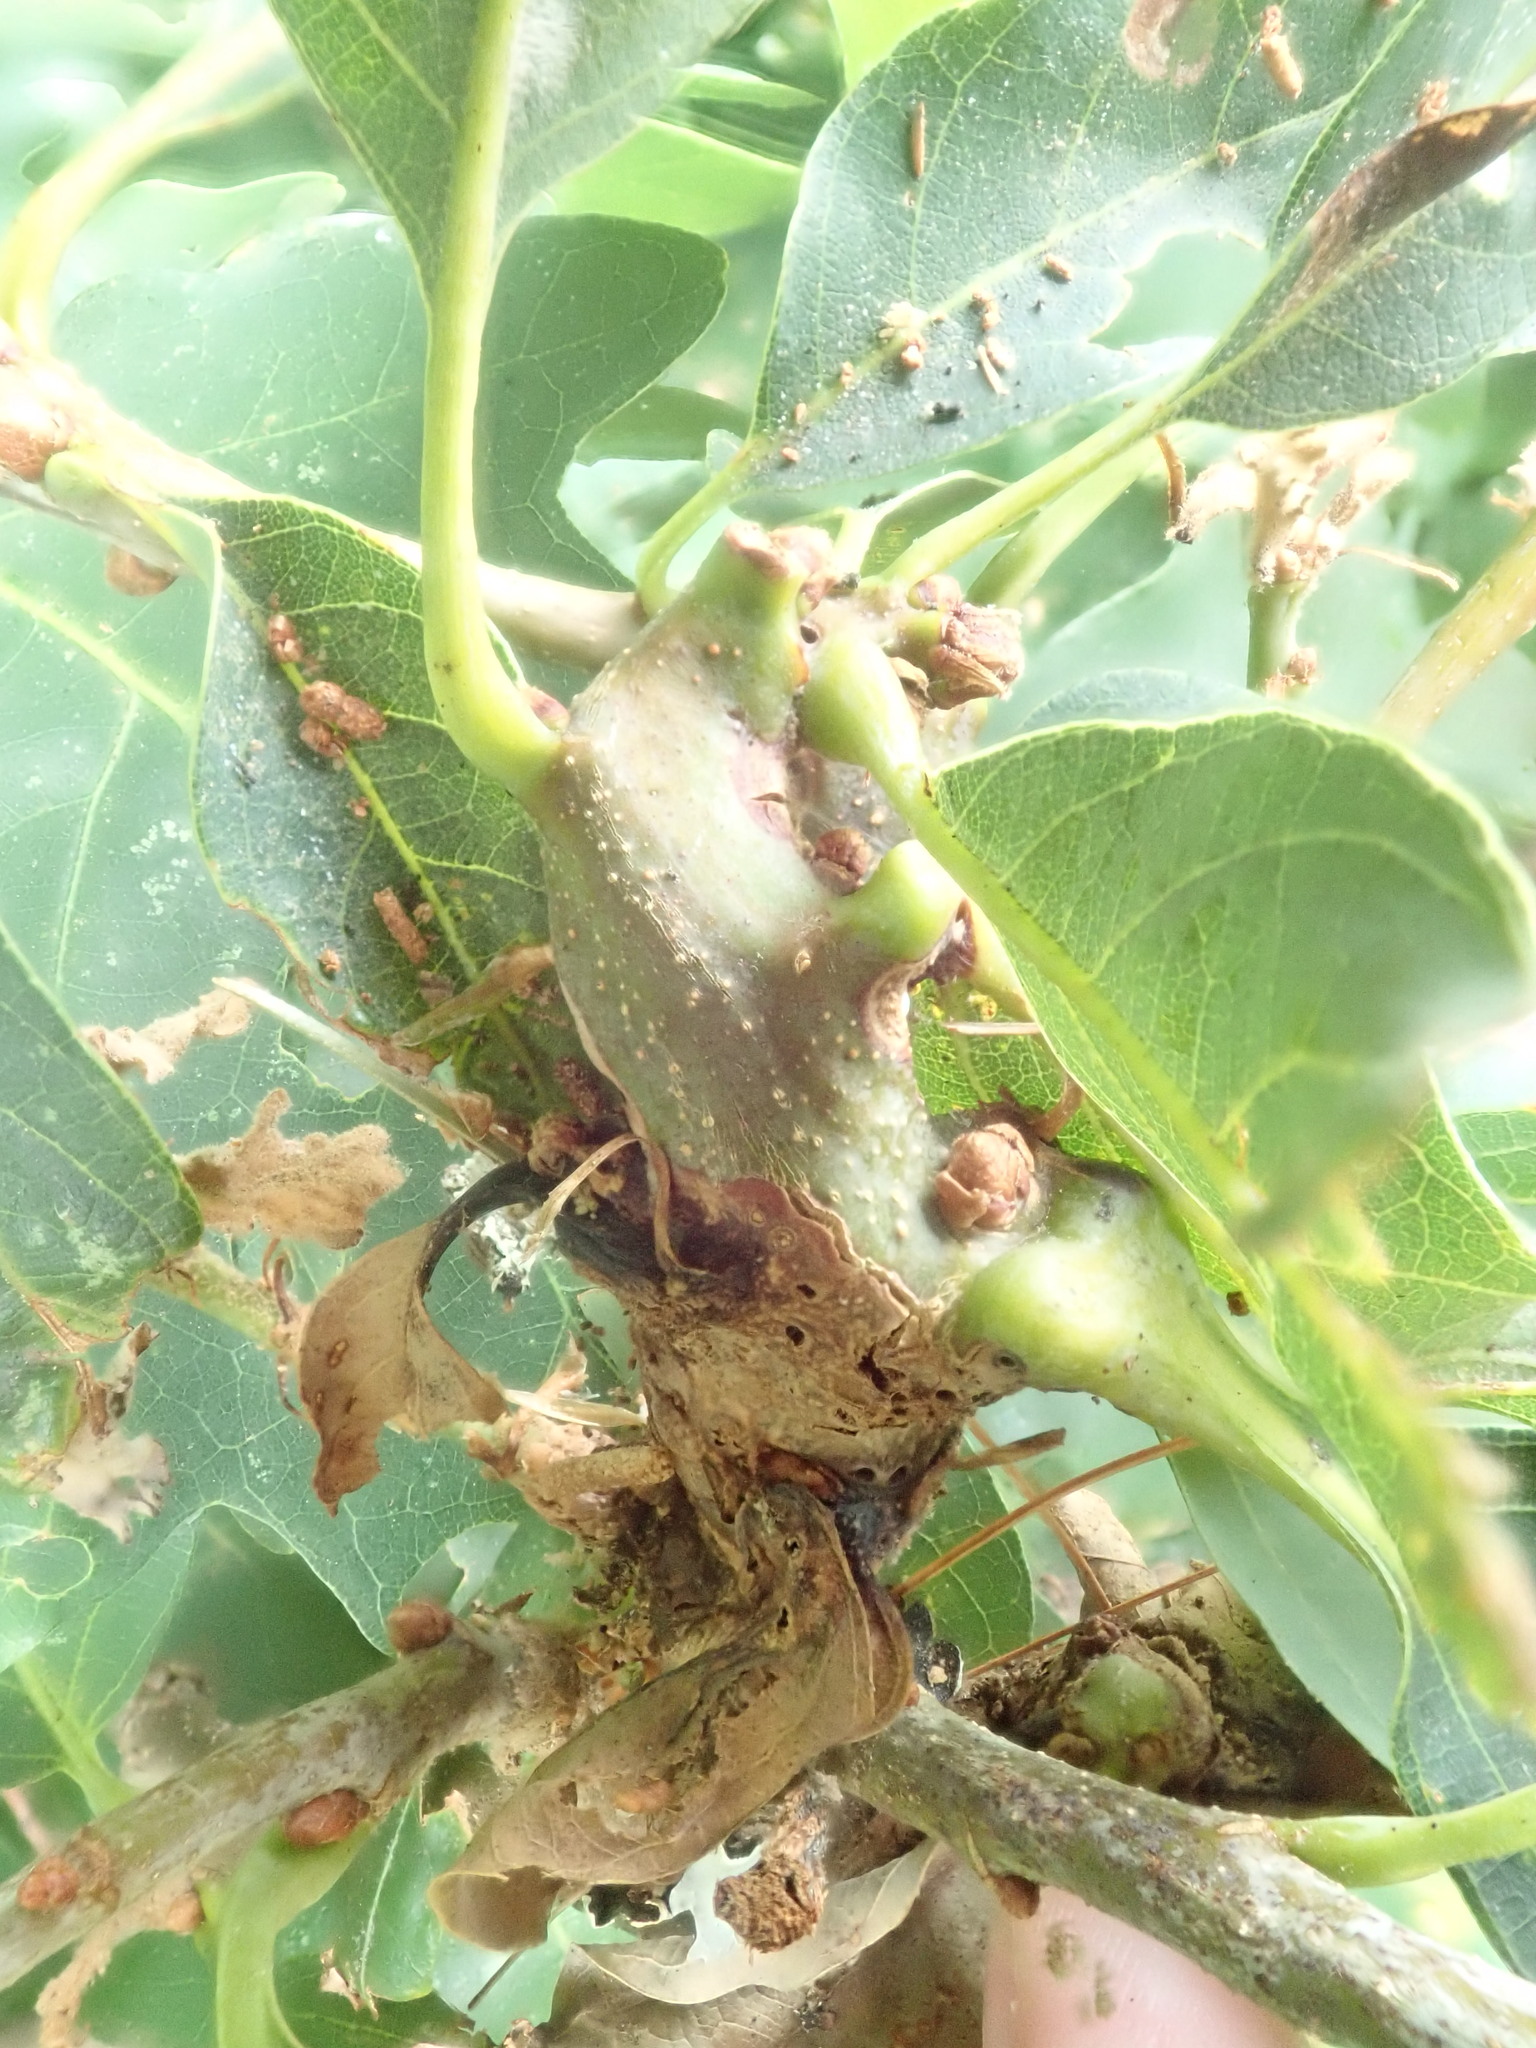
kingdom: Animalia
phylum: Arthropoda
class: Insecta
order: Hymenoptera
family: Cynipidae
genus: Neuroterus
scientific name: Neuroterus quercusbaccarum
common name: Common spangle gall
